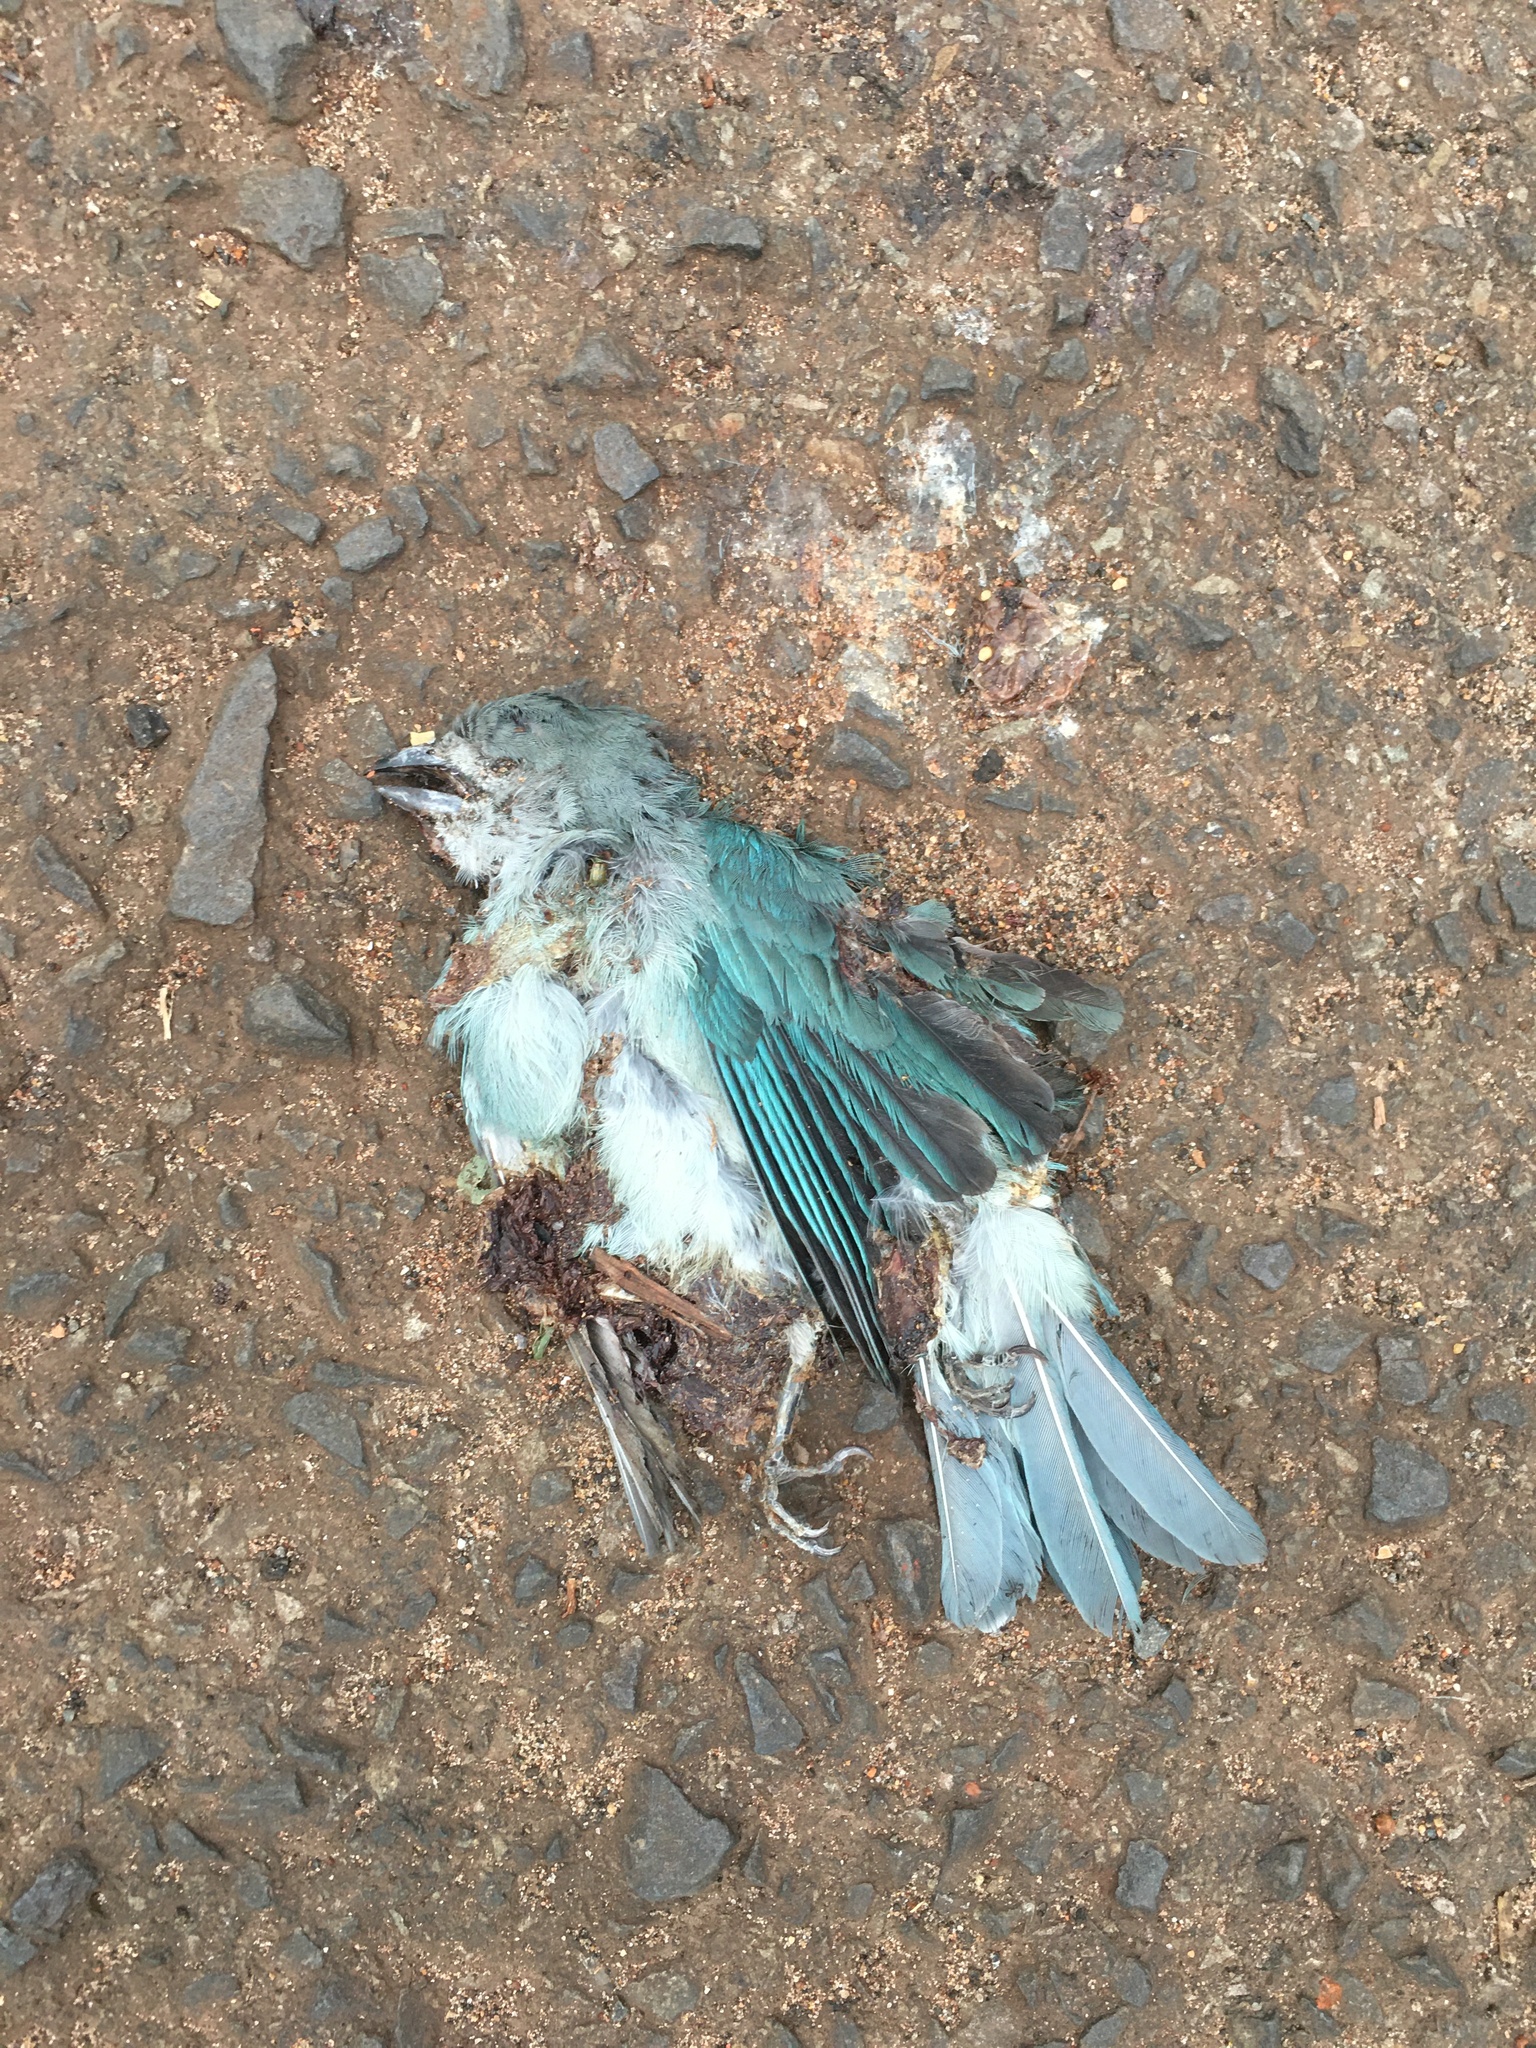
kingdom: Animalia
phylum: Chordata
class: Aves
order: Passeriformes
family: Thraupidae
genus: Thraupis
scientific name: Thraupis sayaca
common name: Sayaca tanager
